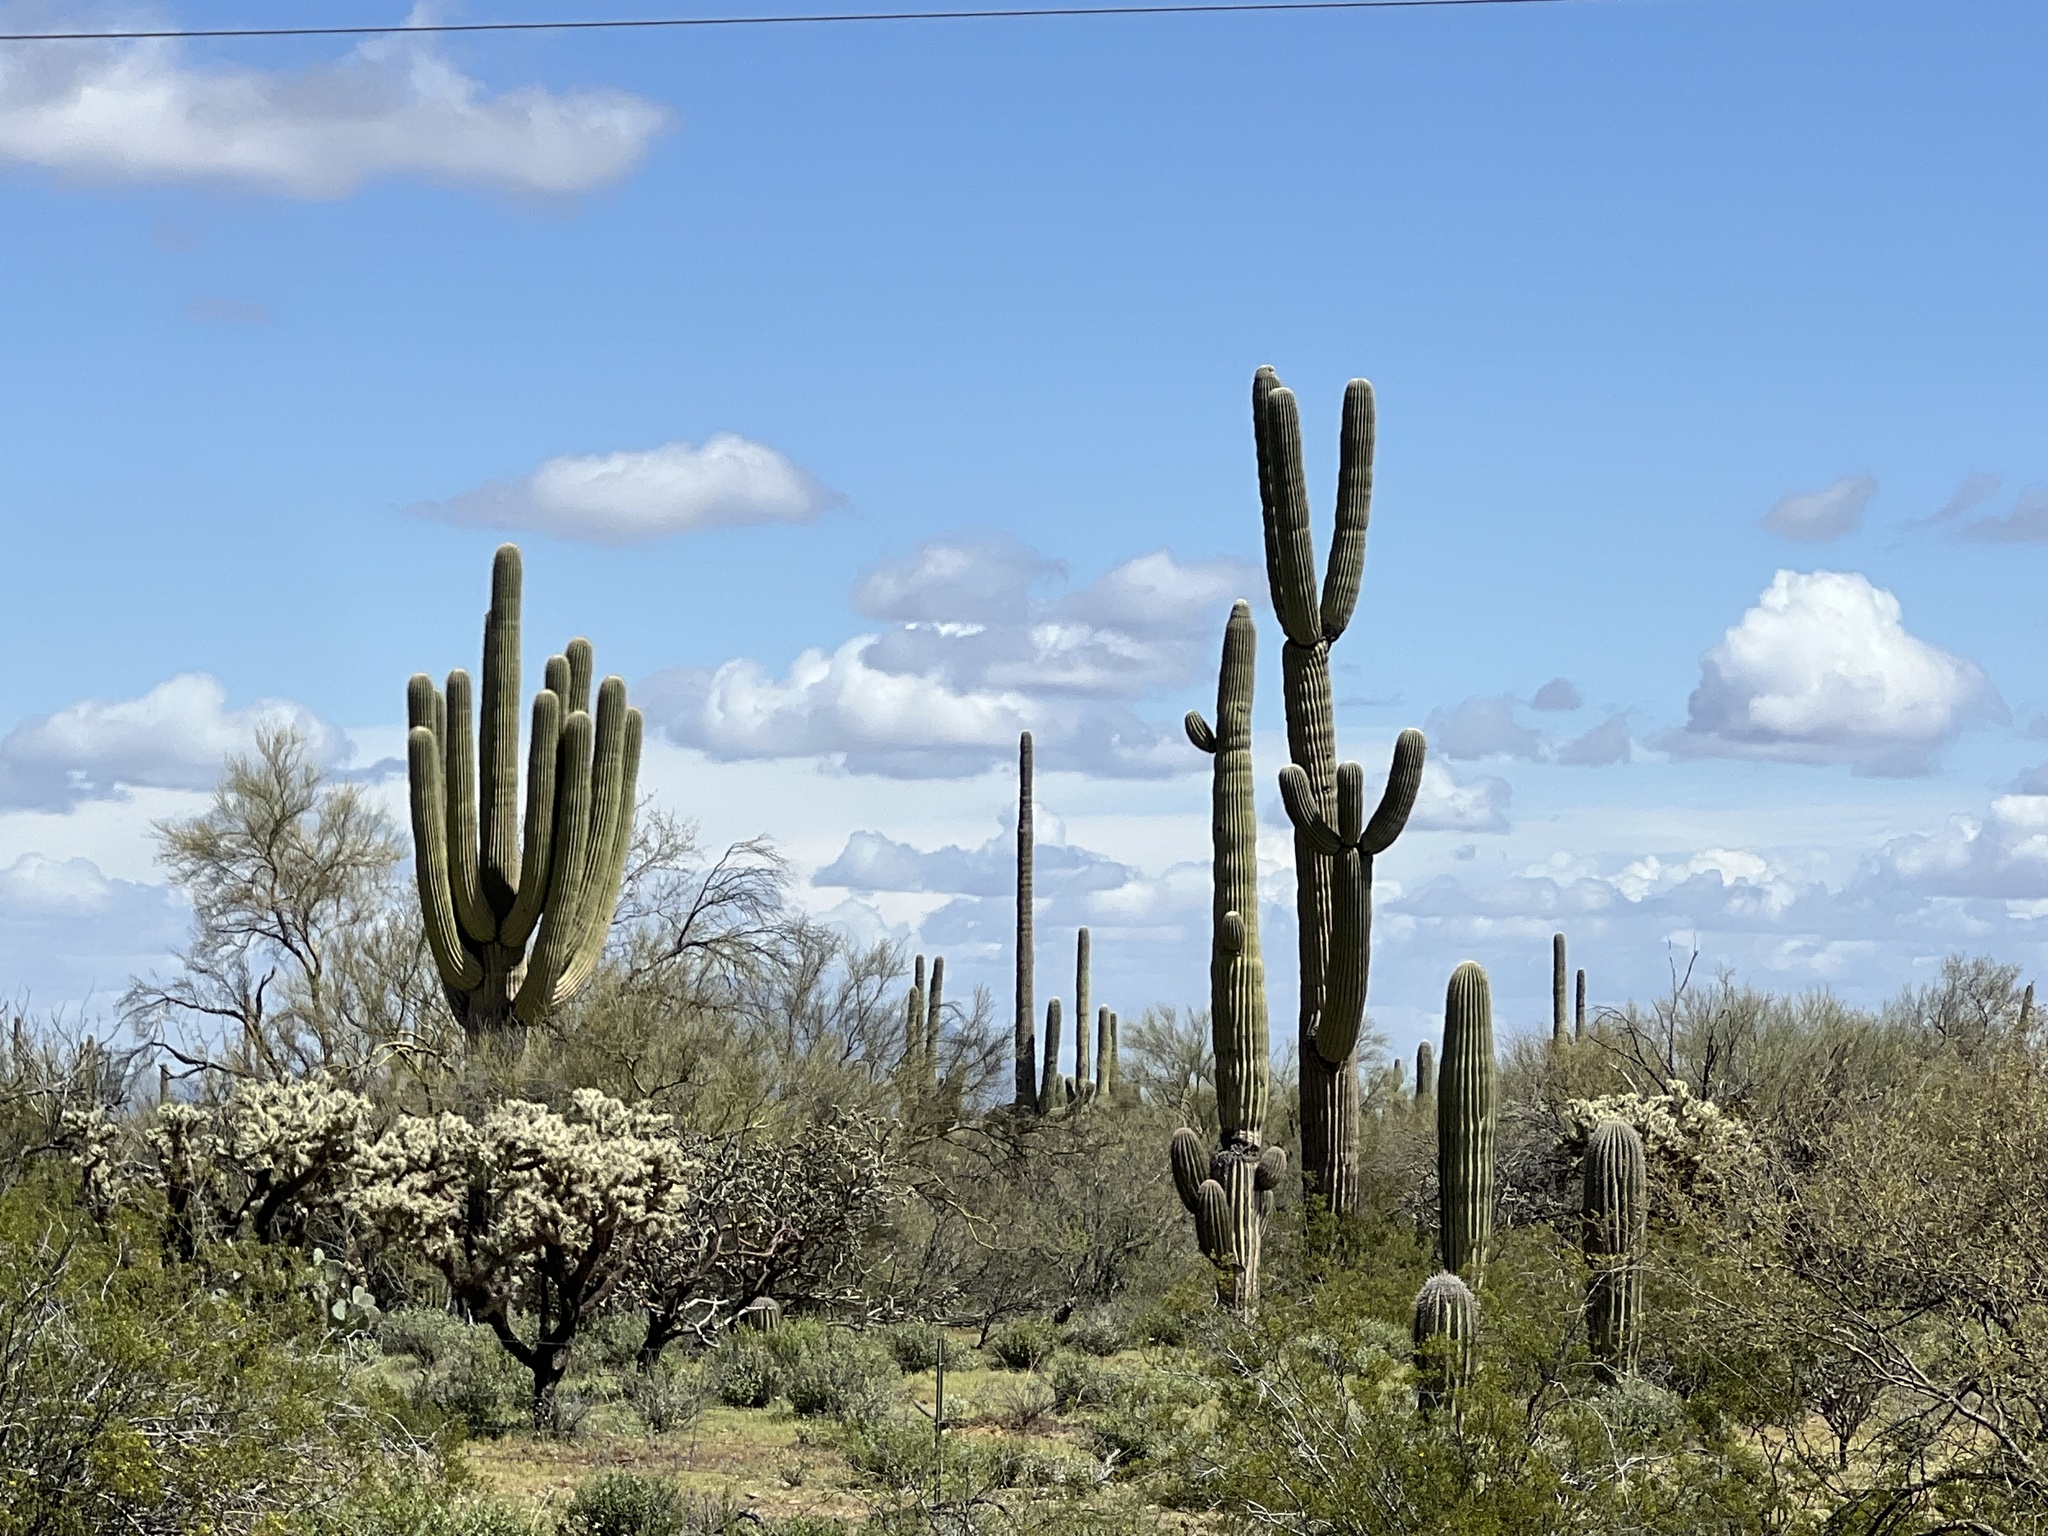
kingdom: Plantae
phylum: Tracheophyta
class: Magnoliopsida
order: Caryophyllales
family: Cactaceae
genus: Carnegiea
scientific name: Carnegiea gigantea
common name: Saguaro
